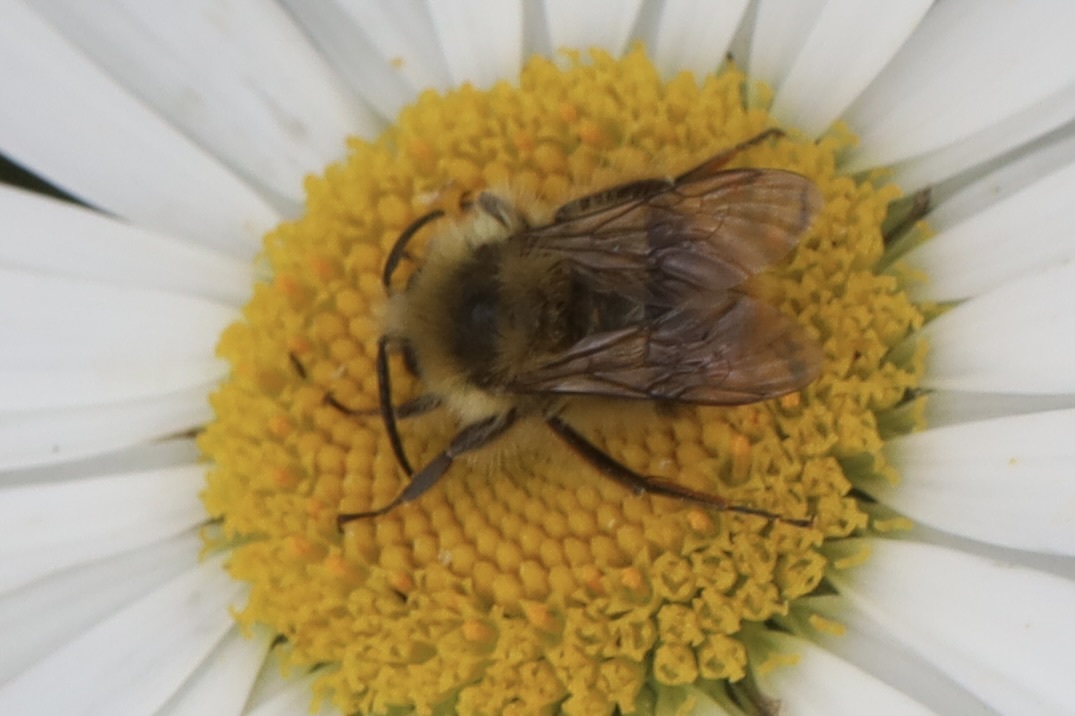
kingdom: Animalia
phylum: Arthropoda
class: Insecta
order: Hymenoptera
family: Apidae
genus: Bombus
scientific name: Bombus mixtus
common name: Fuzzy-horned bumble bee
